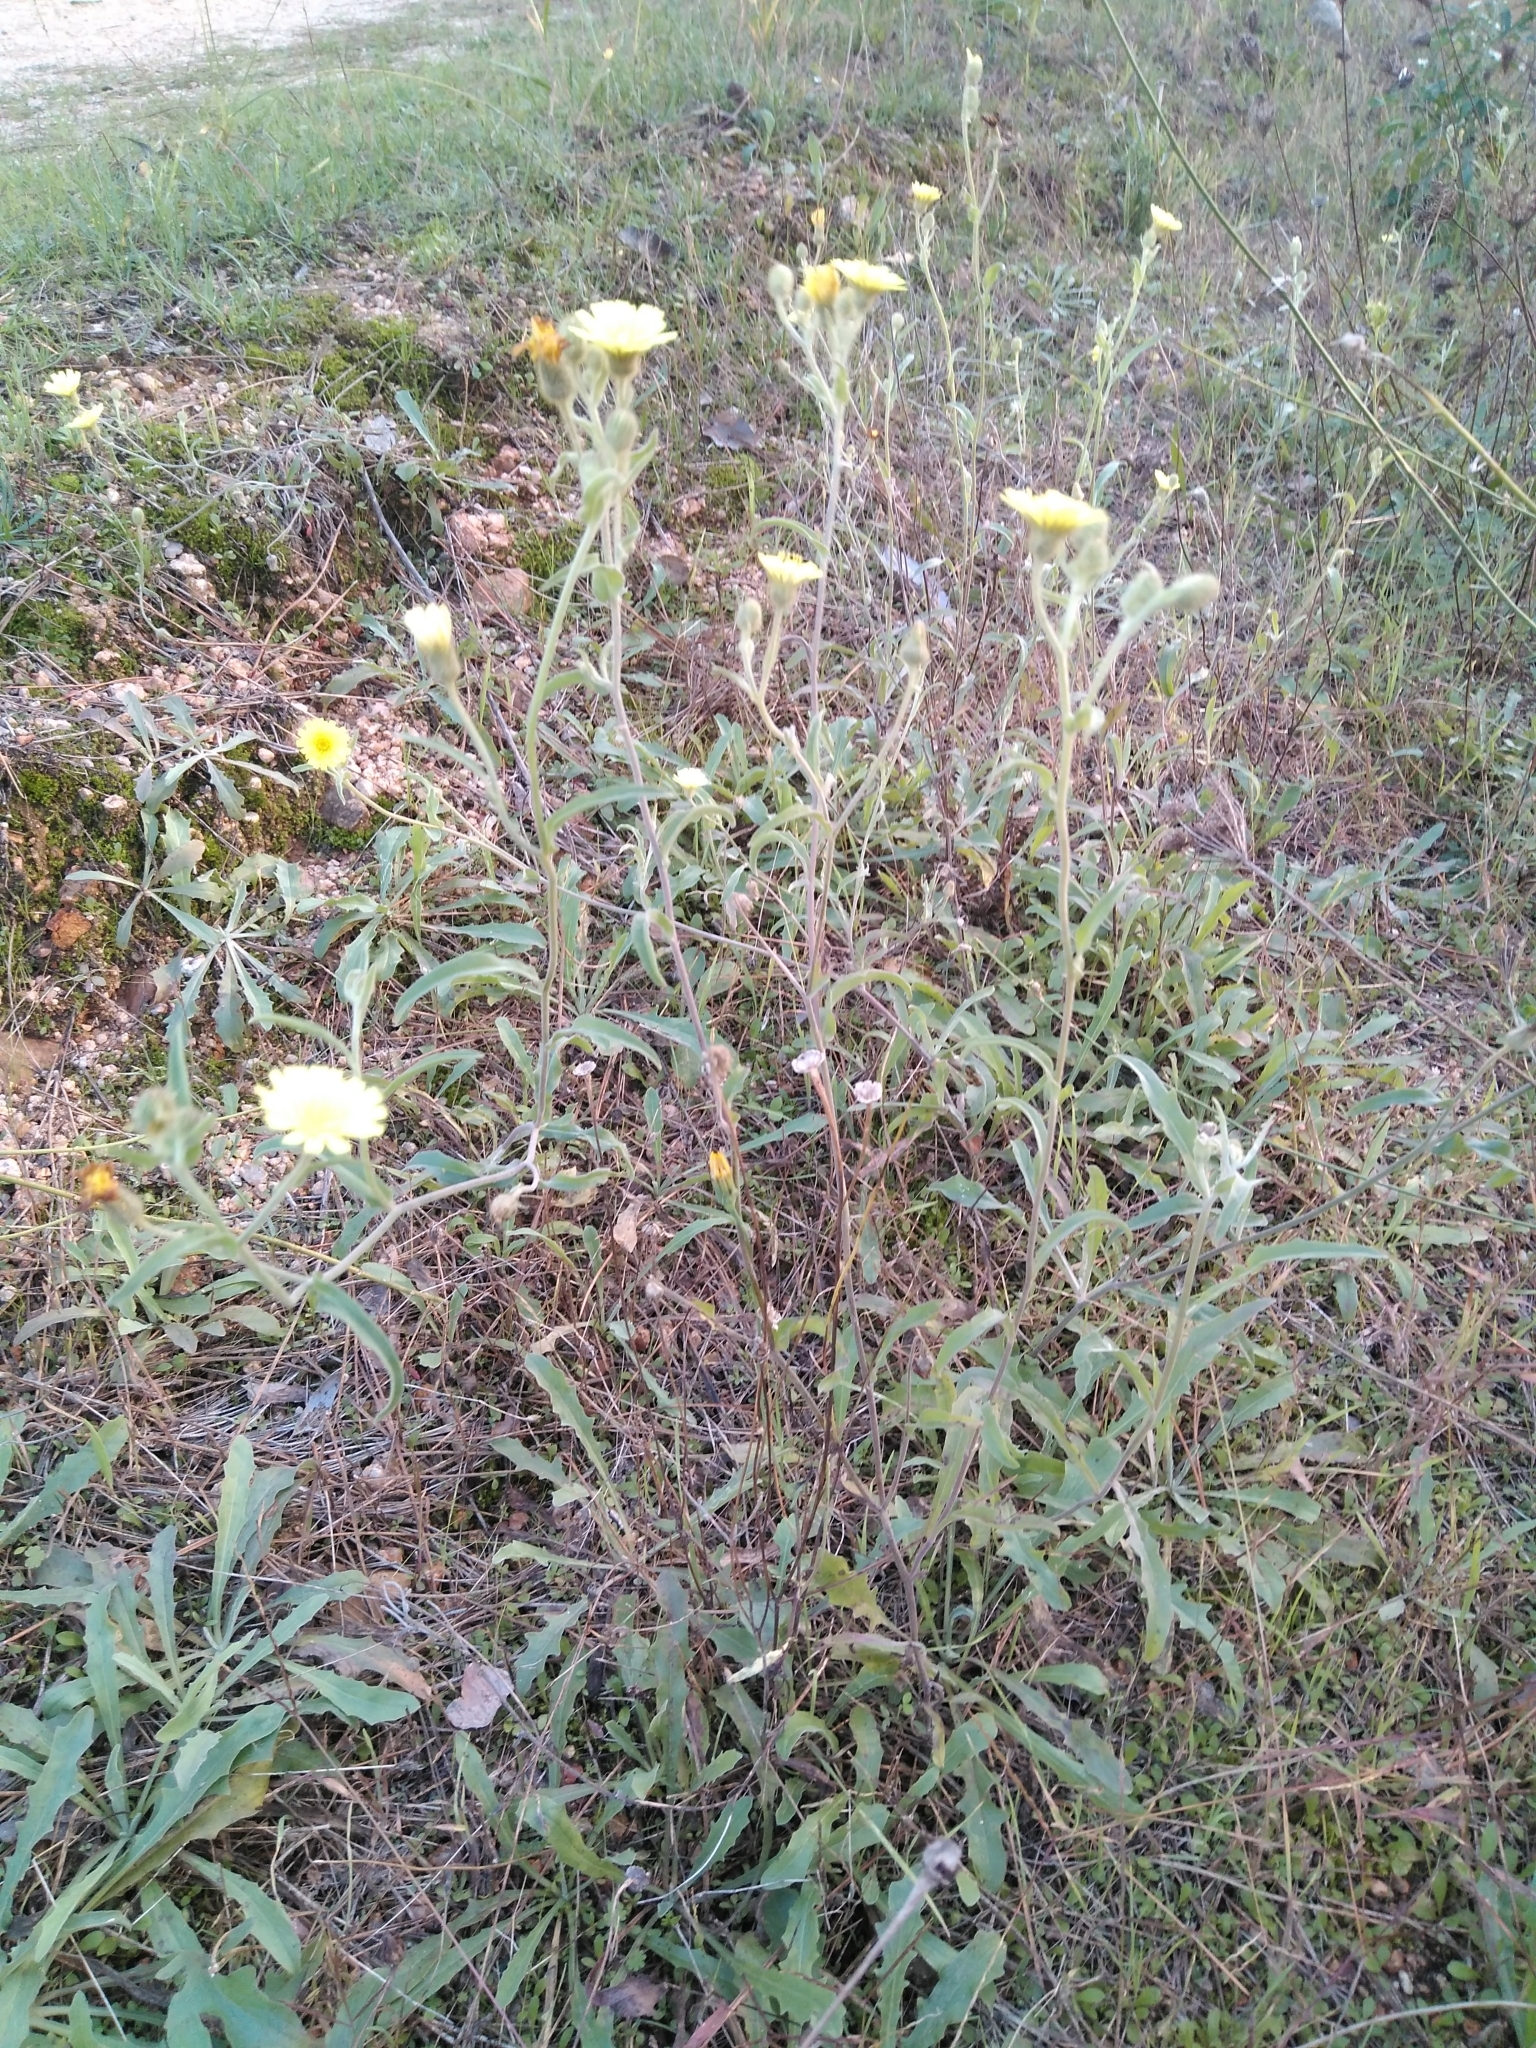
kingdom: Plantae
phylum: Tracheophyta
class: Magnoliopsida
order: Asterales
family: Asteraceae
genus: Andryala
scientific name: Andryala integrifolia
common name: Common andryala
